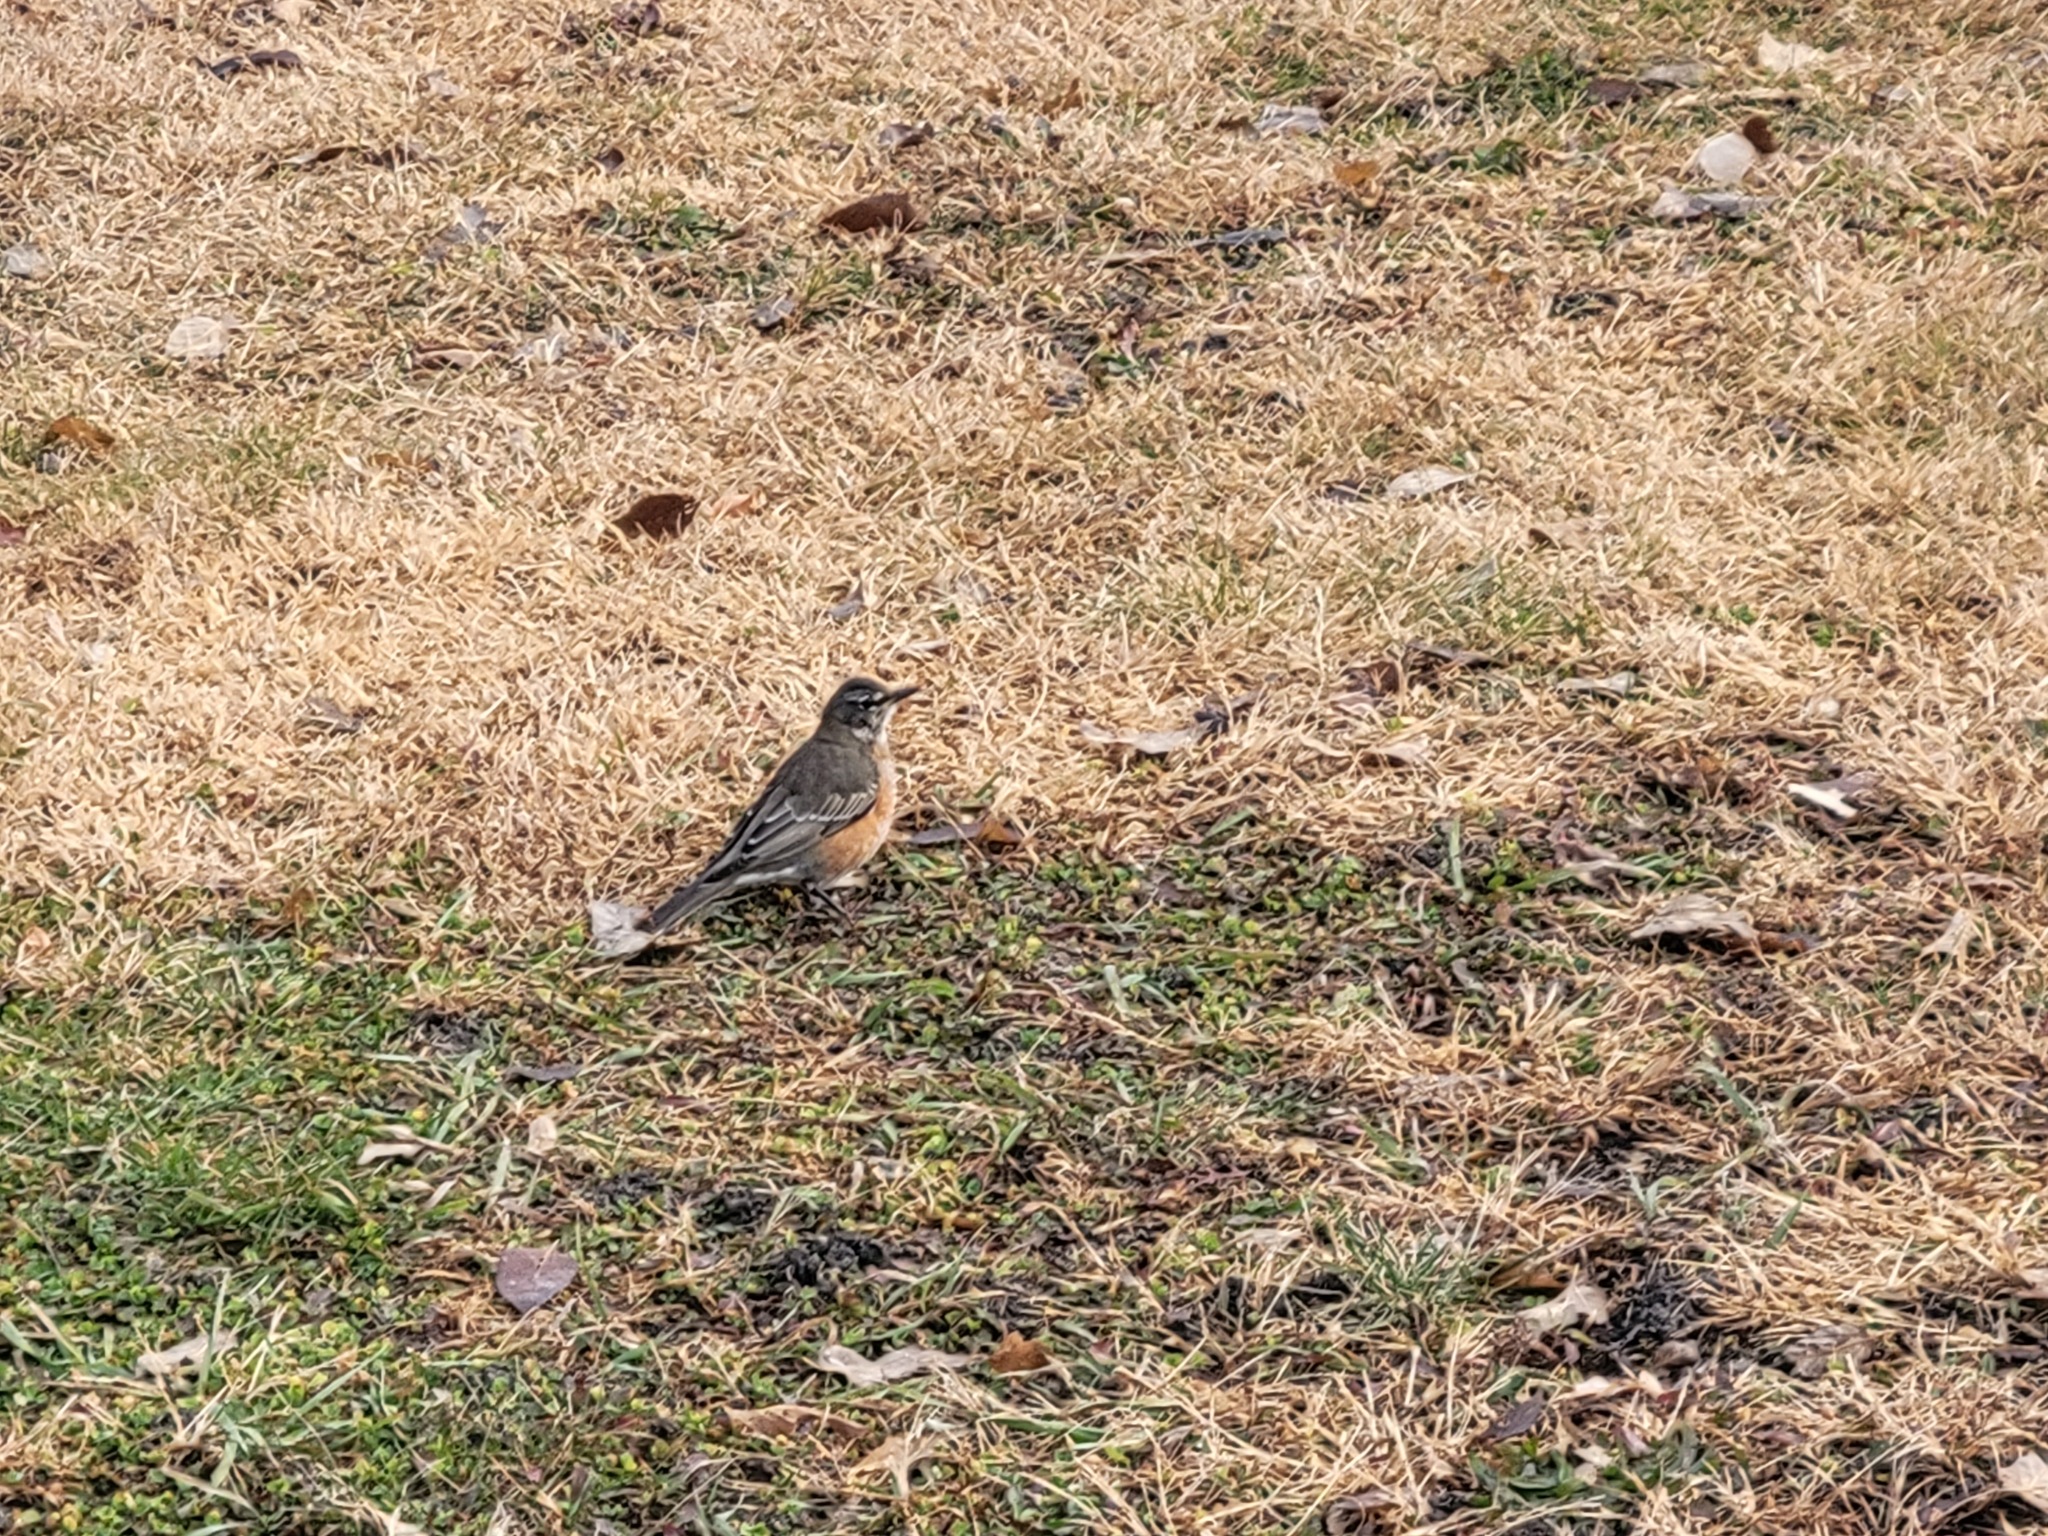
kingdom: Animalia
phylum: Chordata
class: Aves
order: Passeriformes
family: Turdidae
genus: Turdus
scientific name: Turdus migratorius
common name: American robin
